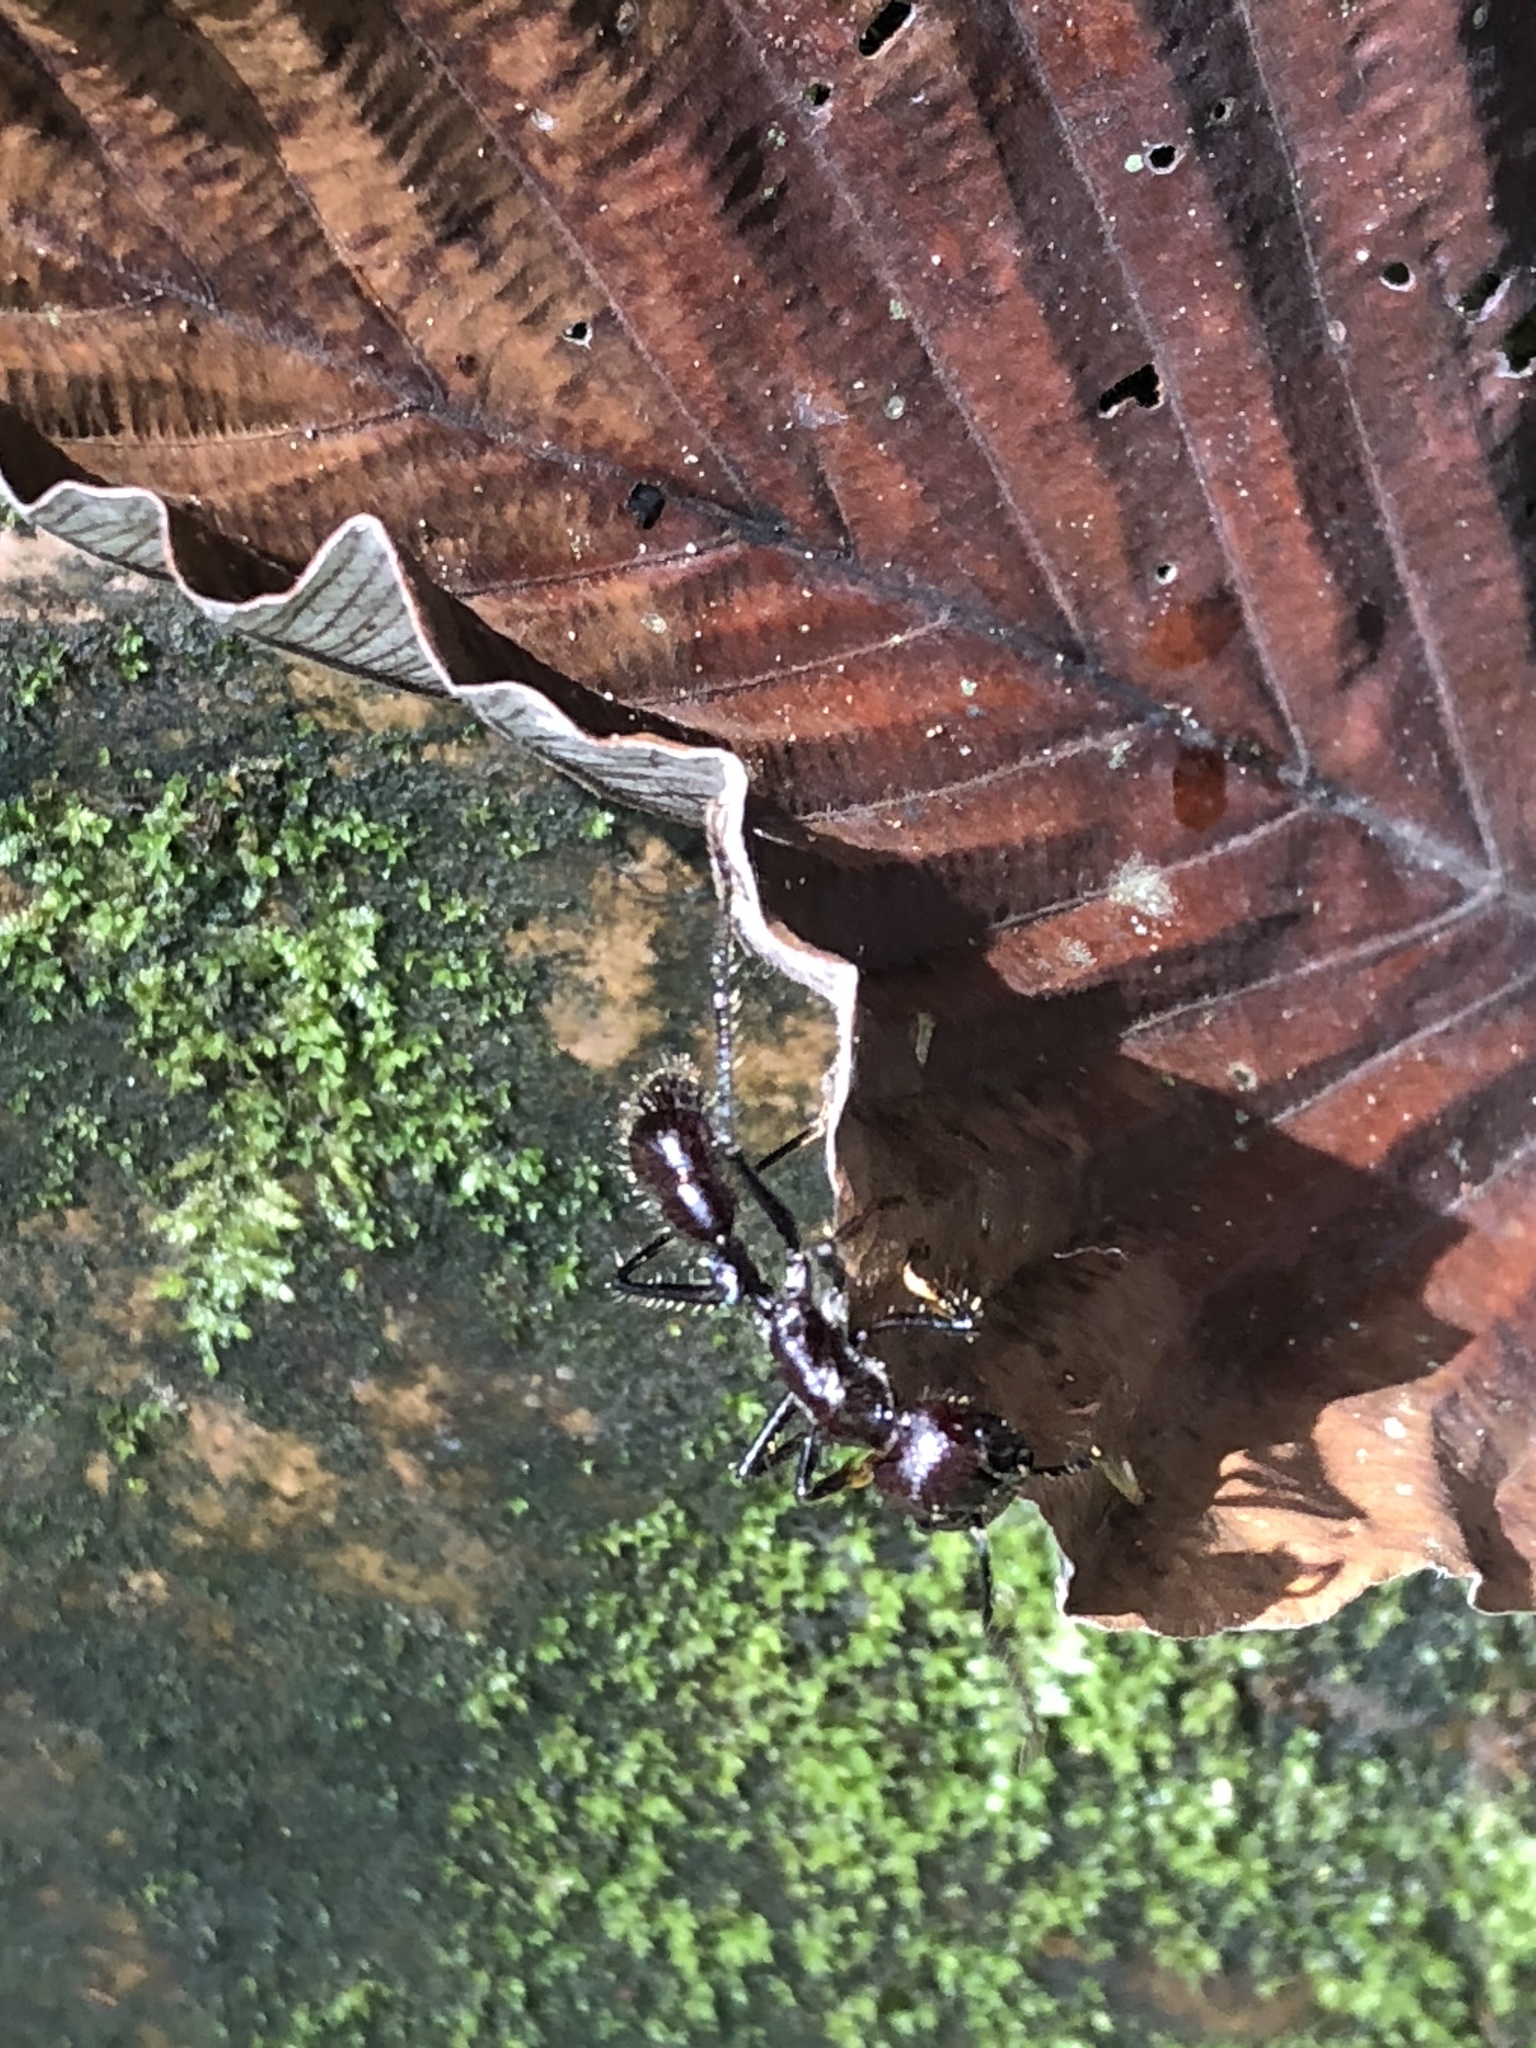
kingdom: Animalia
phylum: Arthropoda
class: Insecta
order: Hymenoptera
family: Formicidae
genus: Paraponera
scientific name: Paraponera clavata
